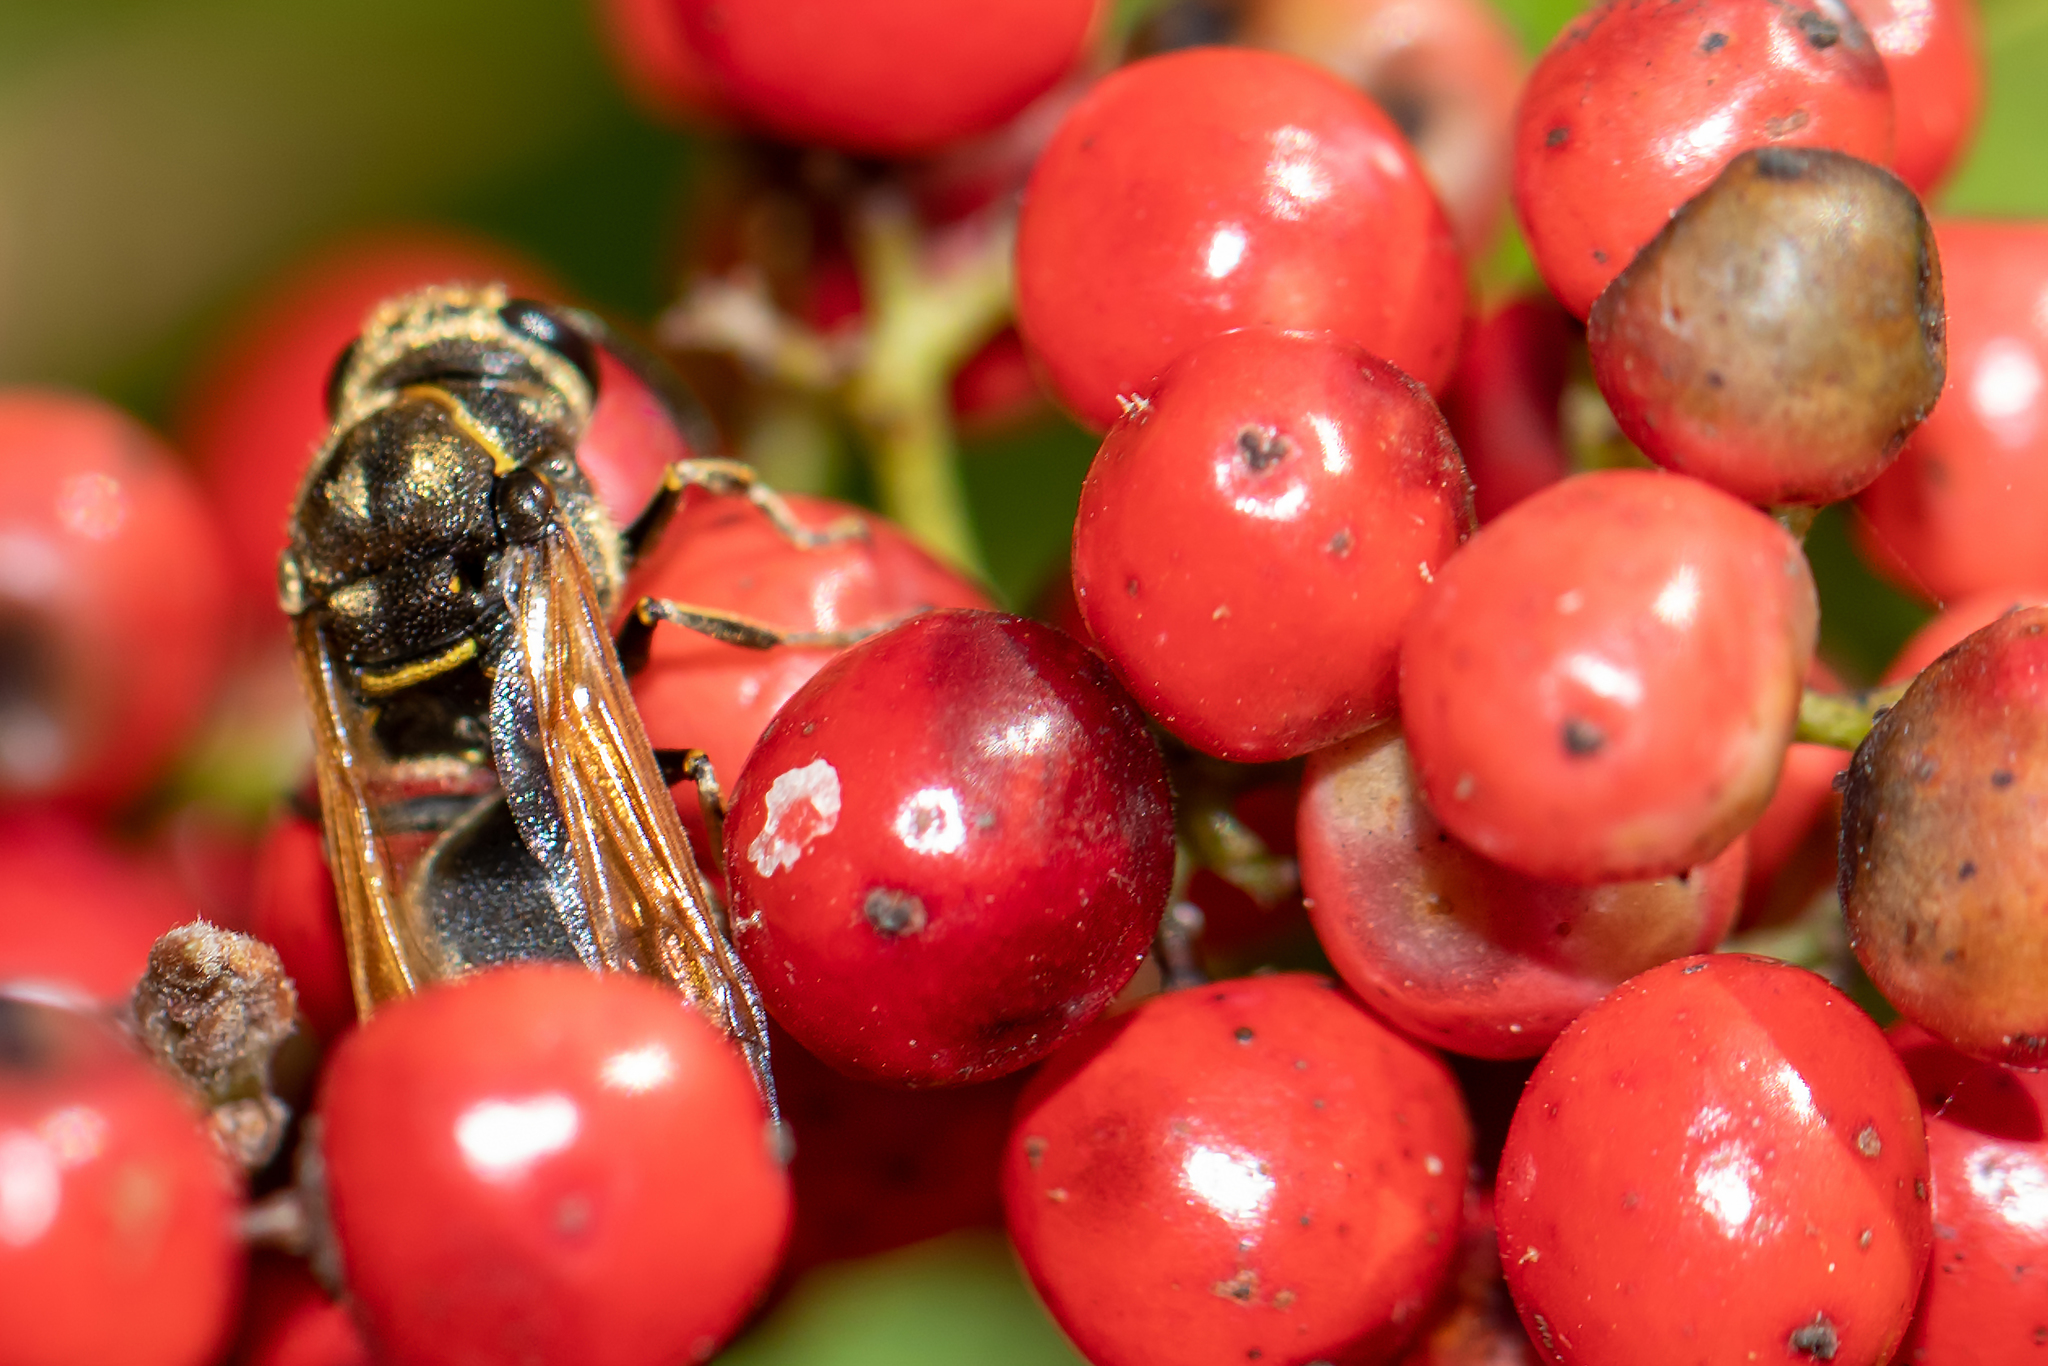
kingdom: Animalia
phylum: Arthropoda
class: Insecta
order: Hymenoptera
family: Eumenidae
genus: Pachodynerus
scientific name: Pachodynerus nasidens
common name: Key hole wasp
